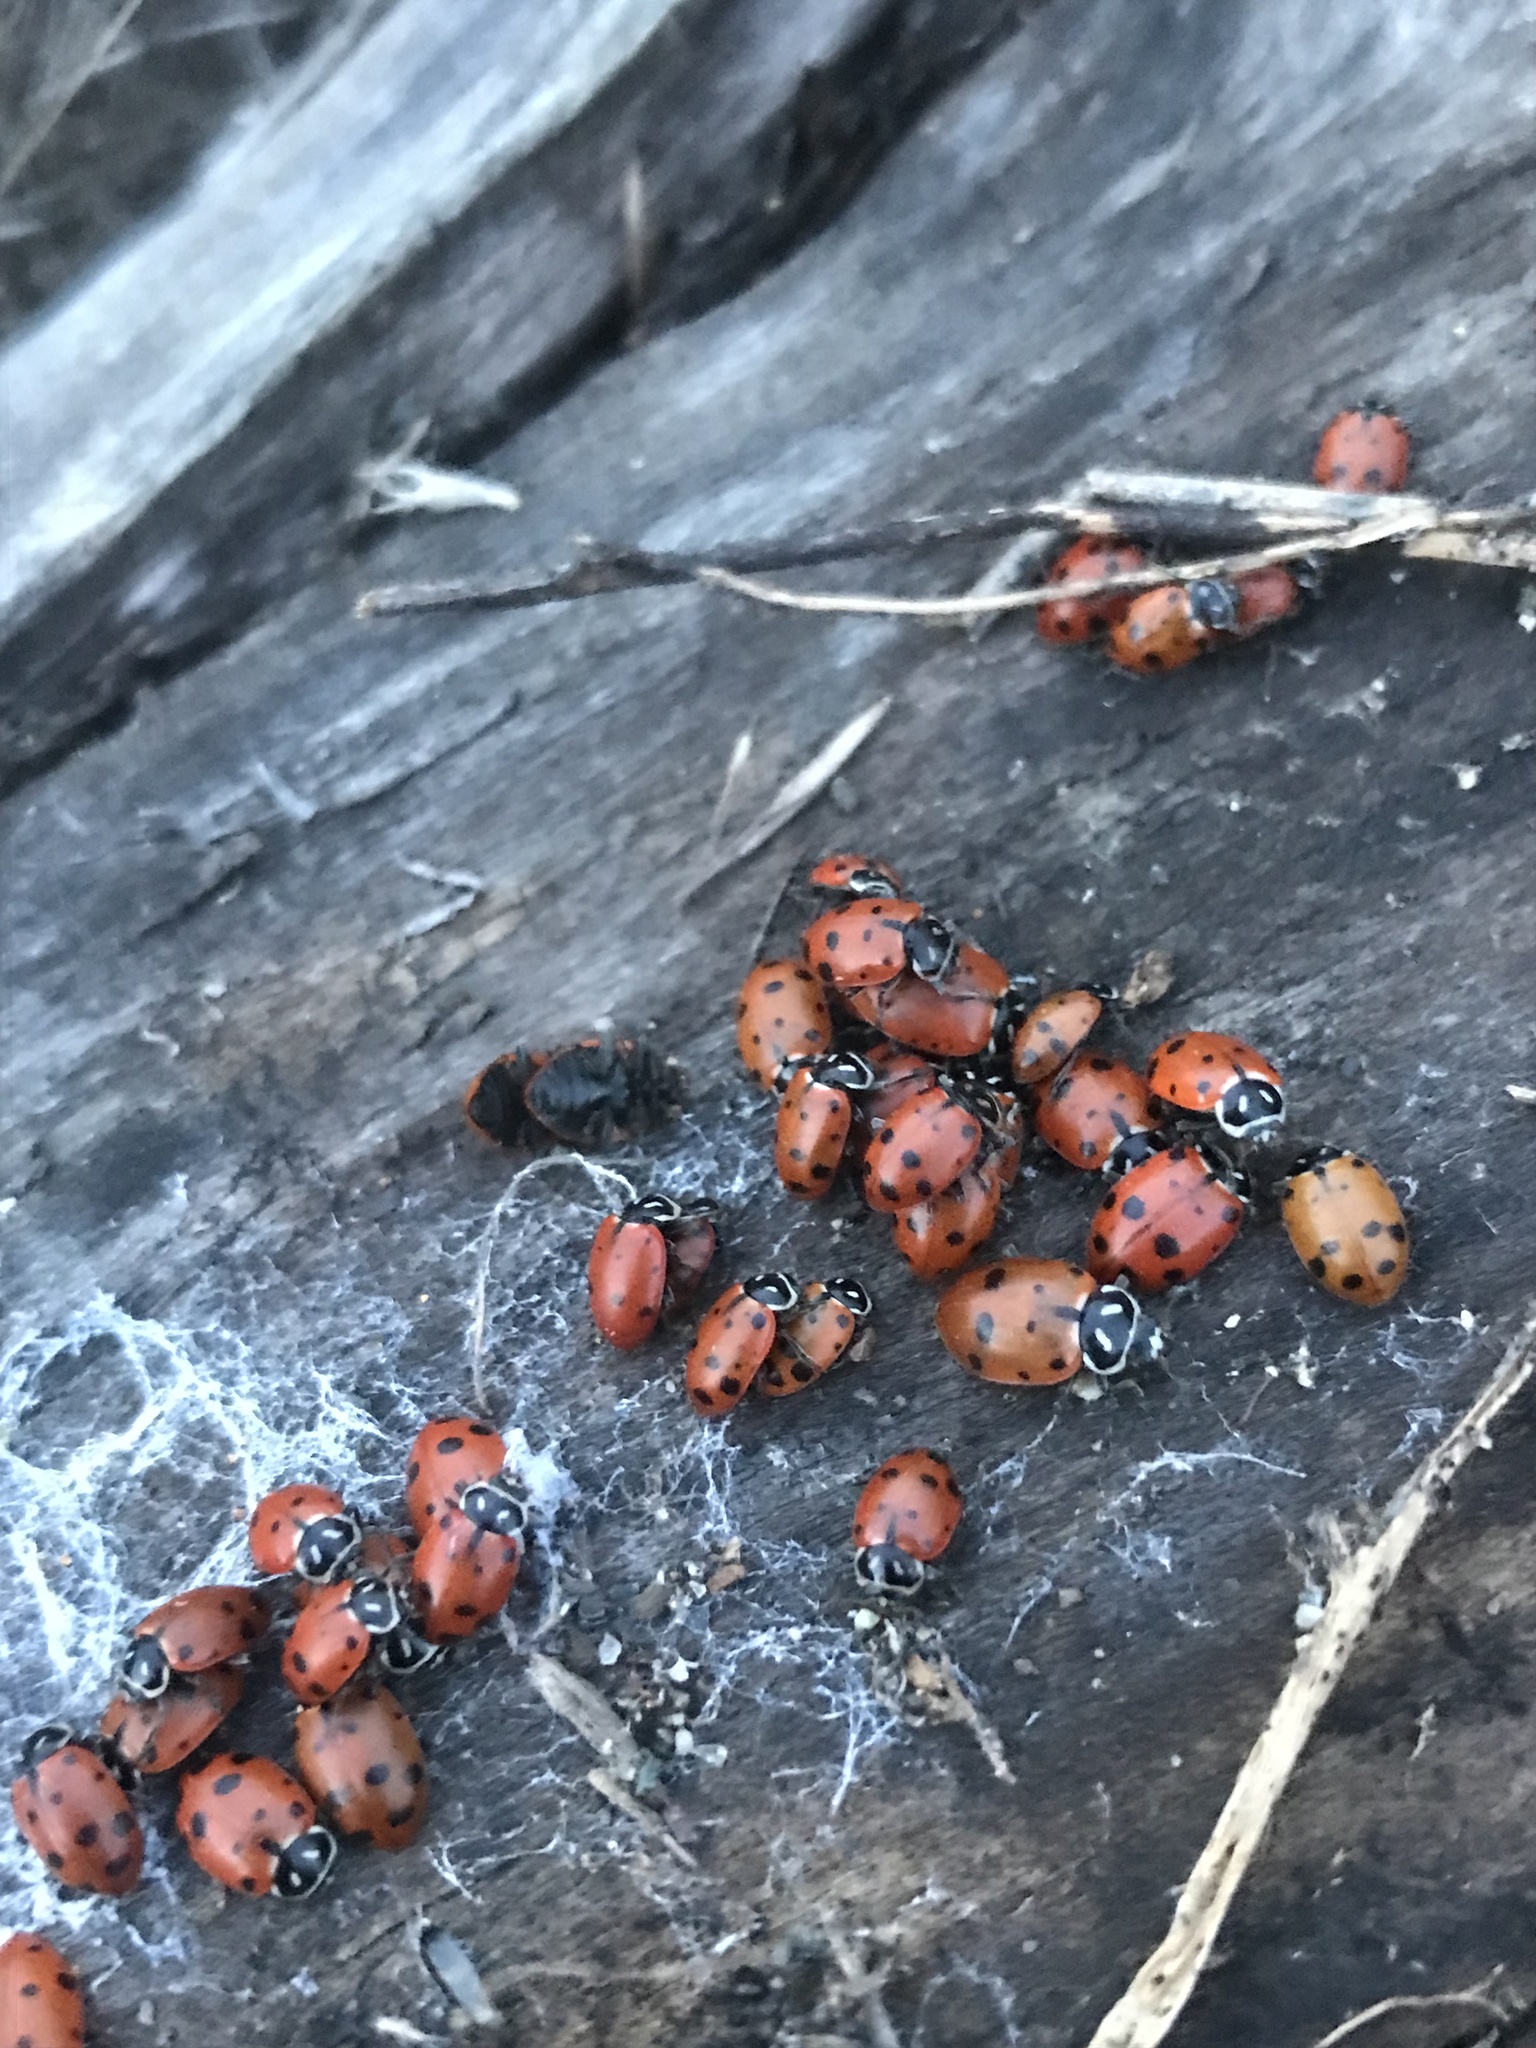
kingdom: Animalia
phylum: Arthropoda
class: Insecta
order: Coleoptera
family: Coccinellidae
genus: Hippodamia
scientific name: Hippodamia convergens
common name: Convergent lady beetle
